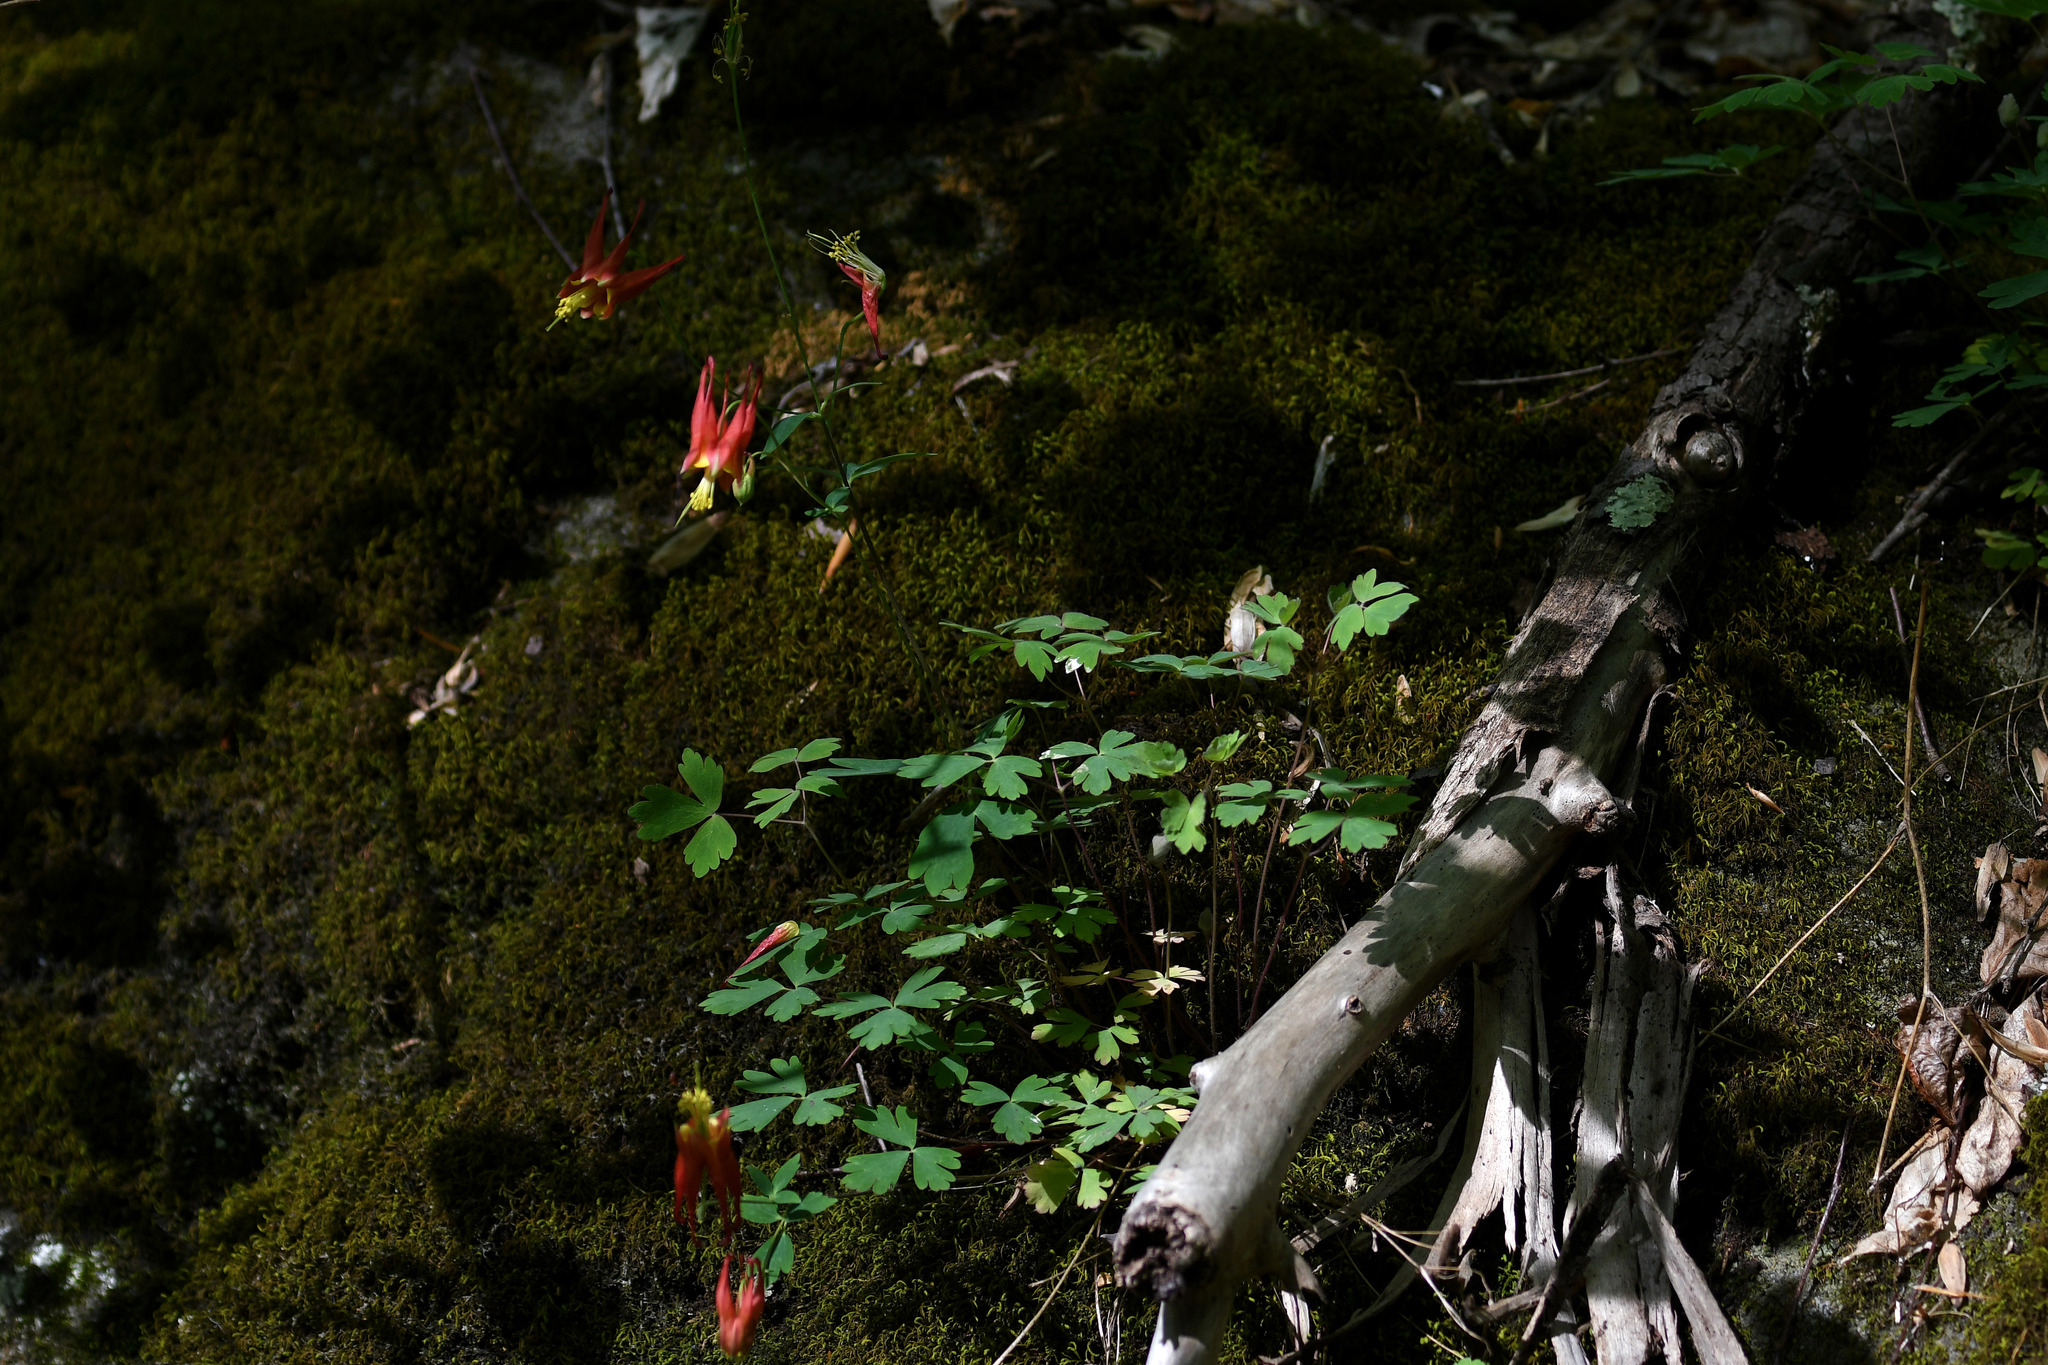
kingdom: Plantae
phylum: Tracheophyta
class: Magnoliopsida
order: Ranunculales
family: Ranunculaceae
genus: Aquilegia
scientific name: Aquilegia canadensis
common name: American columbine
